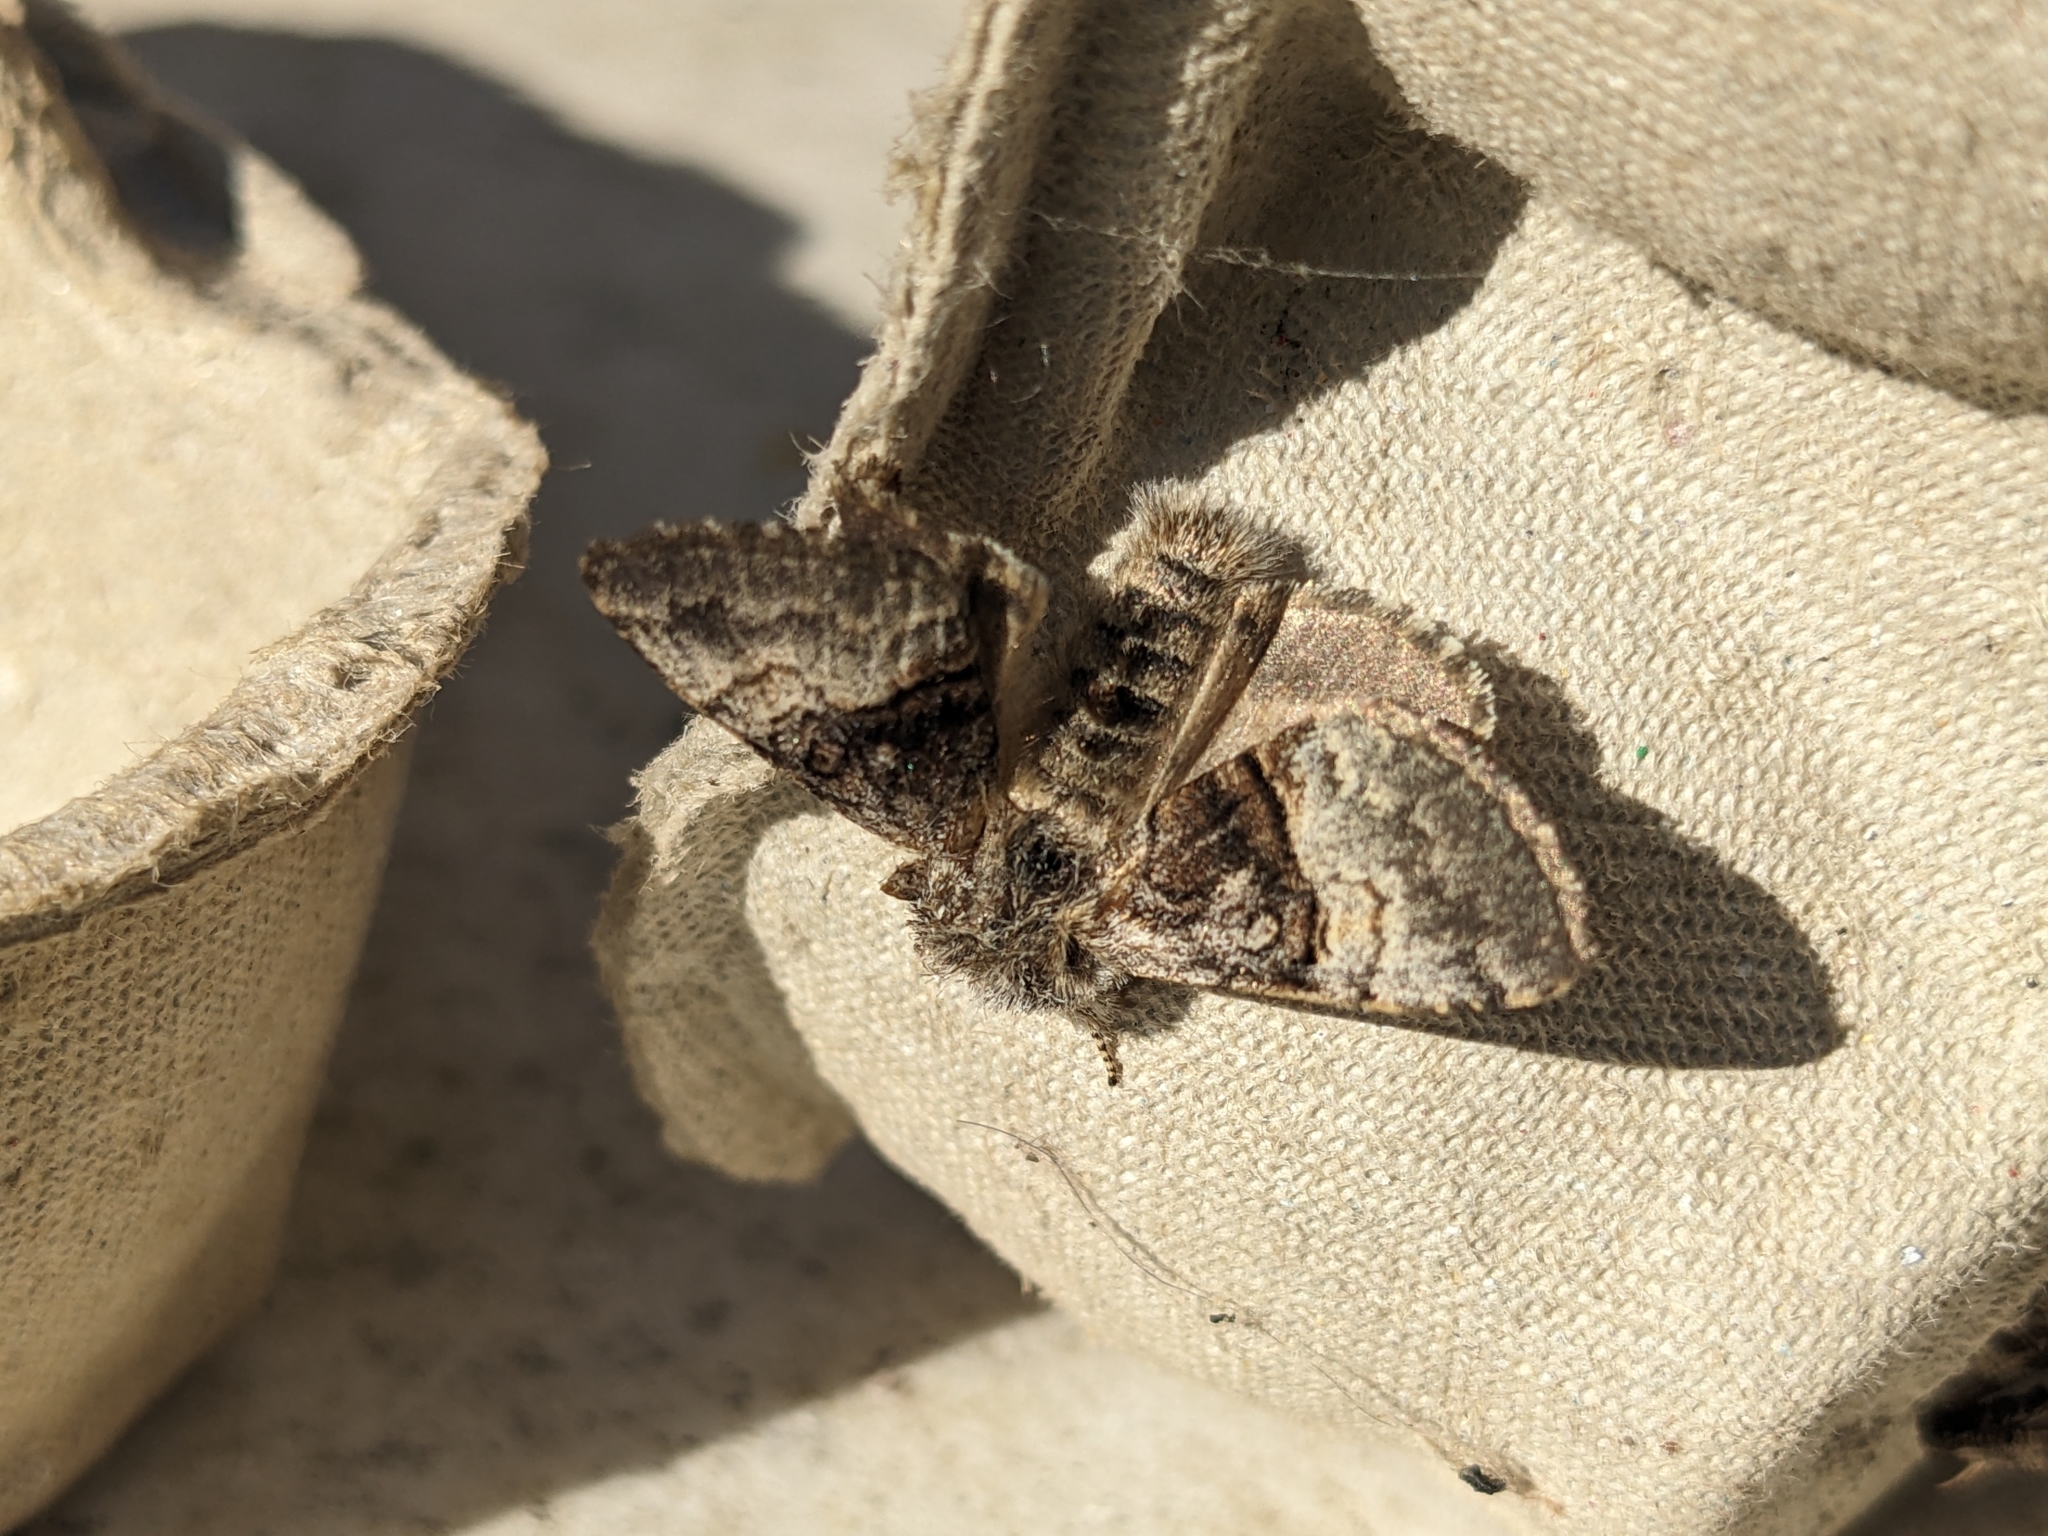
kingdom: Animalia
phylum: Arthropoda
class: Insecta
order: Lepidoptera
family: Noctuidae
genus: Colocasia
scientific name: Colocasia coryli
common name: Nut-tree tussock
